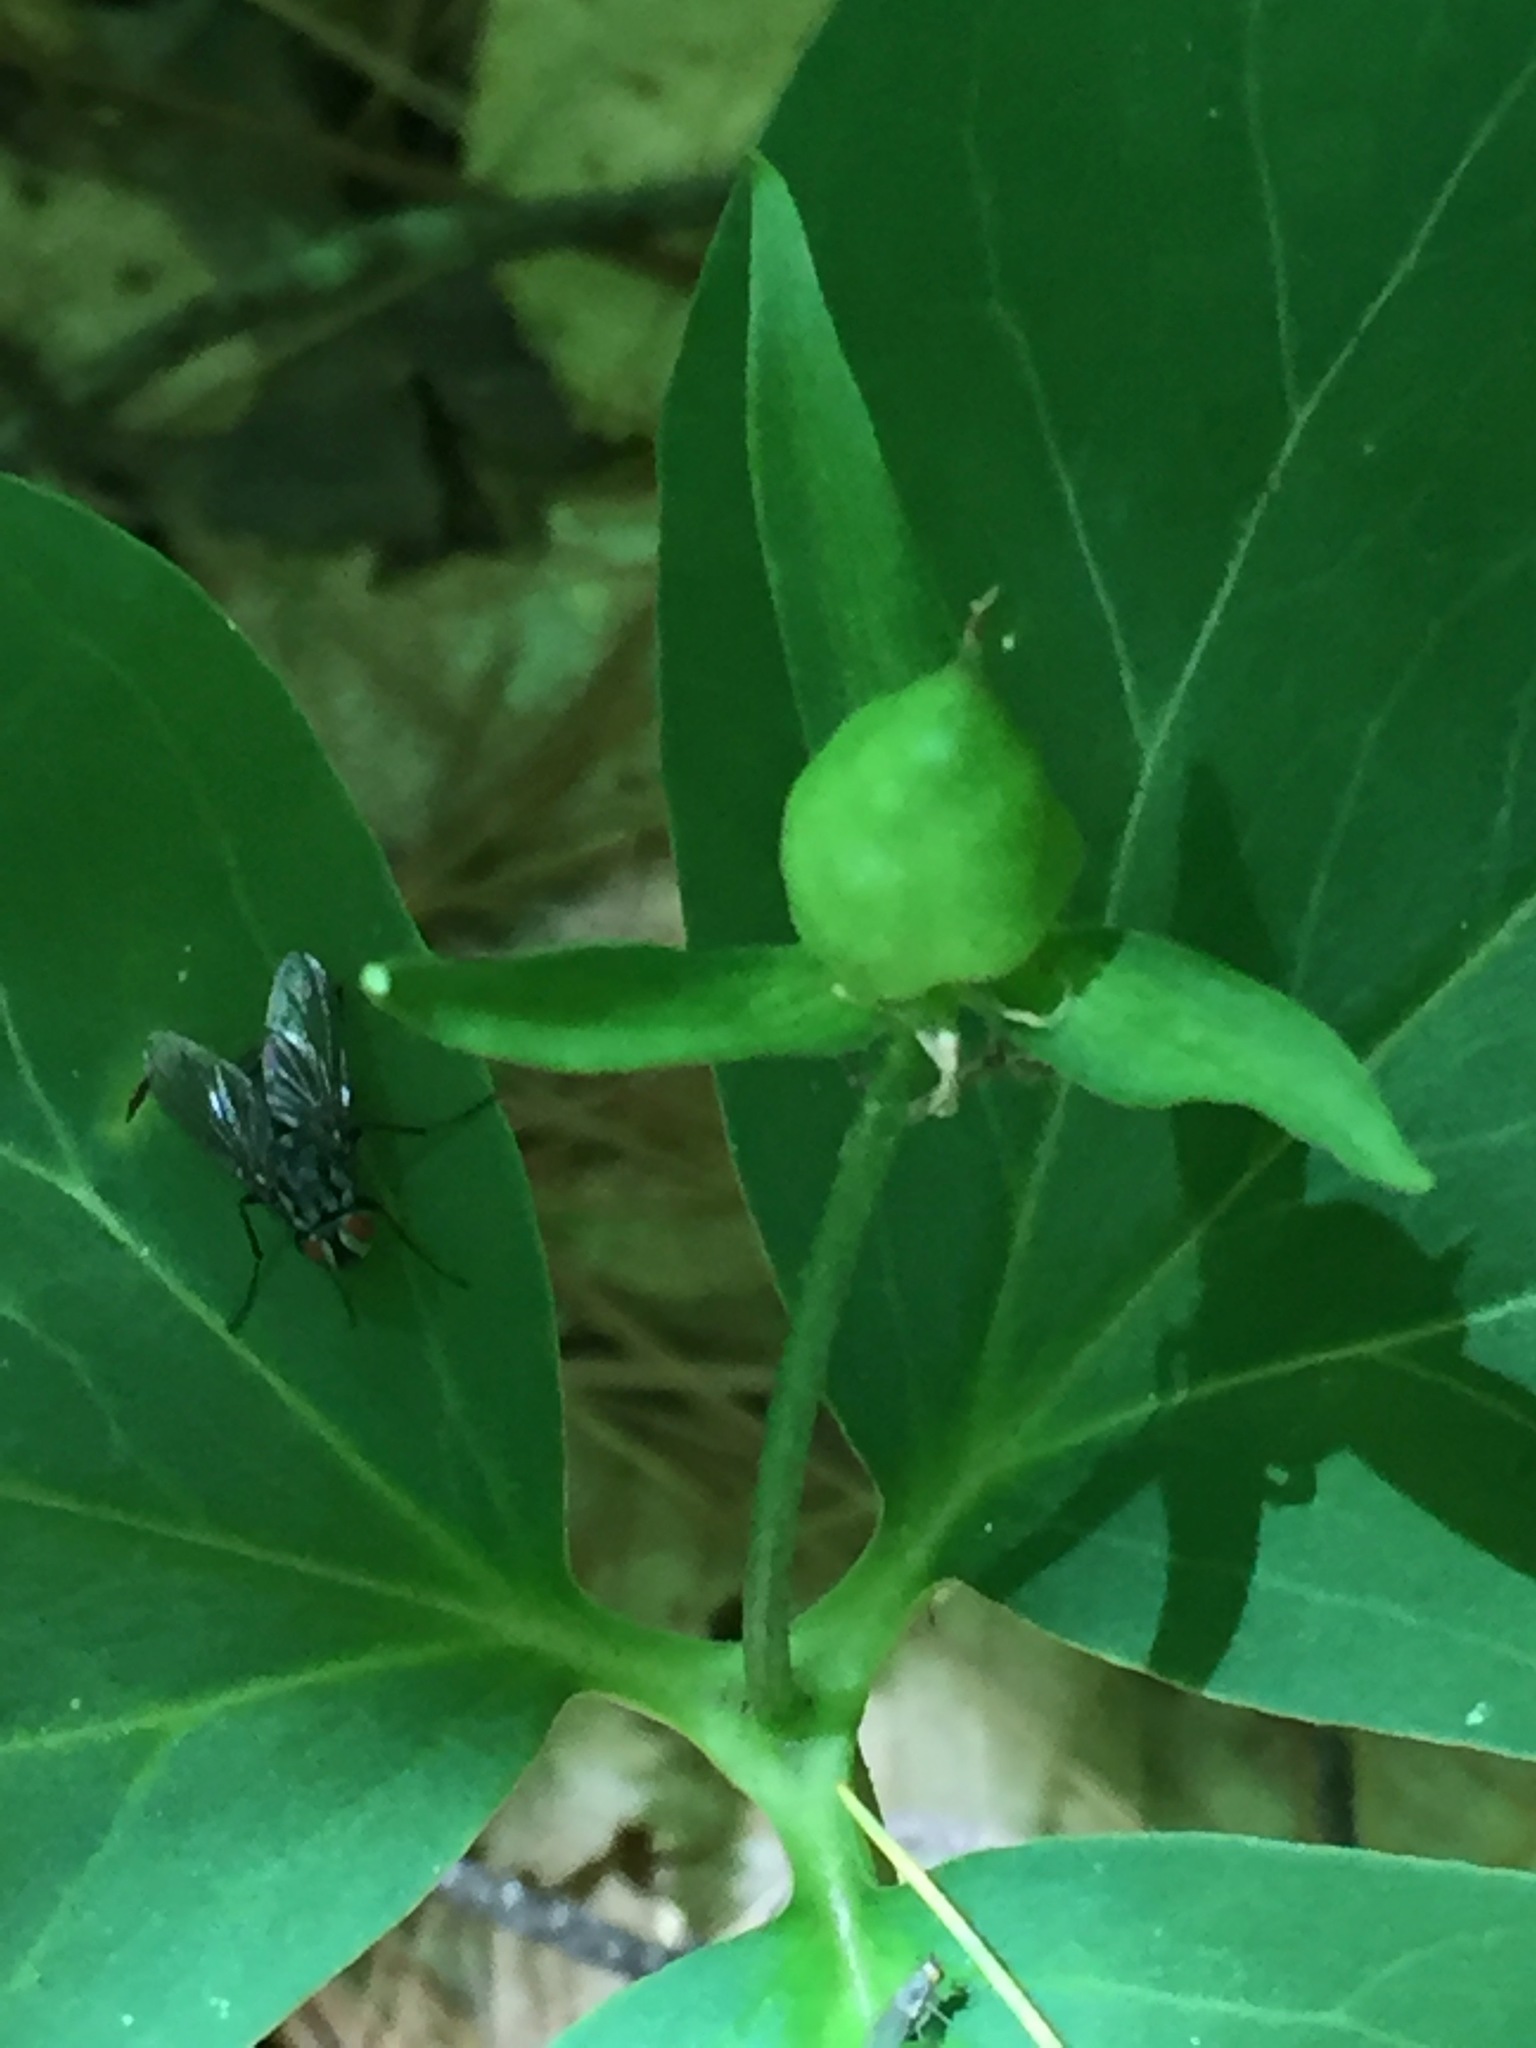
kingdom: Plantae
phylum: Tracheophyta
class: Liliopsida
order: Liliales
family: Melanthiaceae
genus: Trillium
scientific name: Trillium undulatum
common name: Paint trillium
